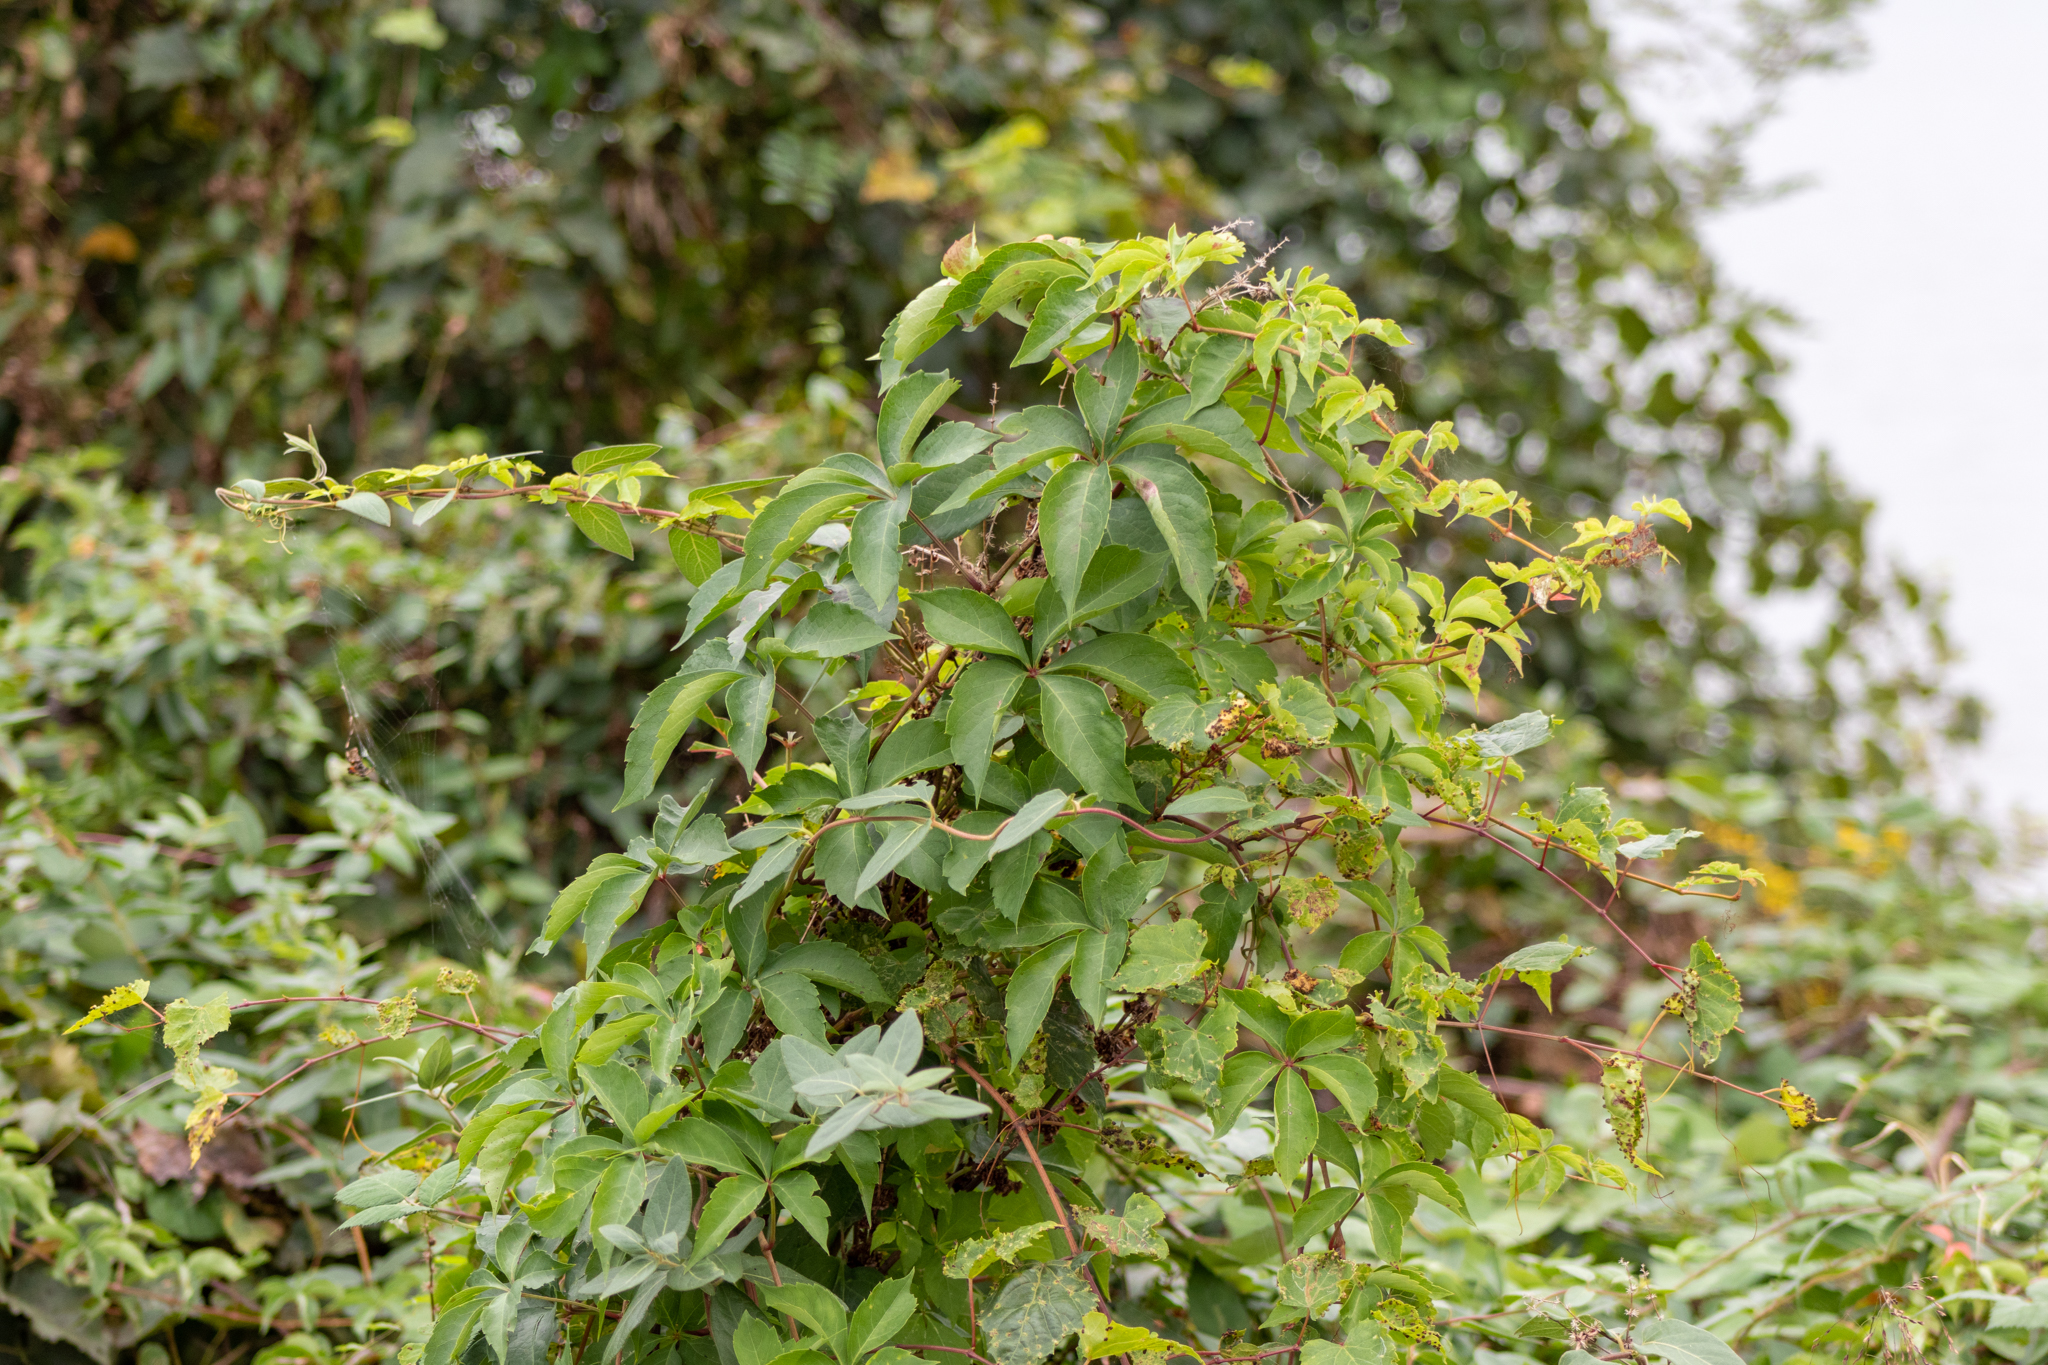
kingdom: Plantae
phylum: Tracheophyta
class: Magnoliopsida
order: Vitales
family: Vitaceae
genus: Parthenocissus
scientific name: Parthenocissus quinquefolia
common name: Virginia-creeper
